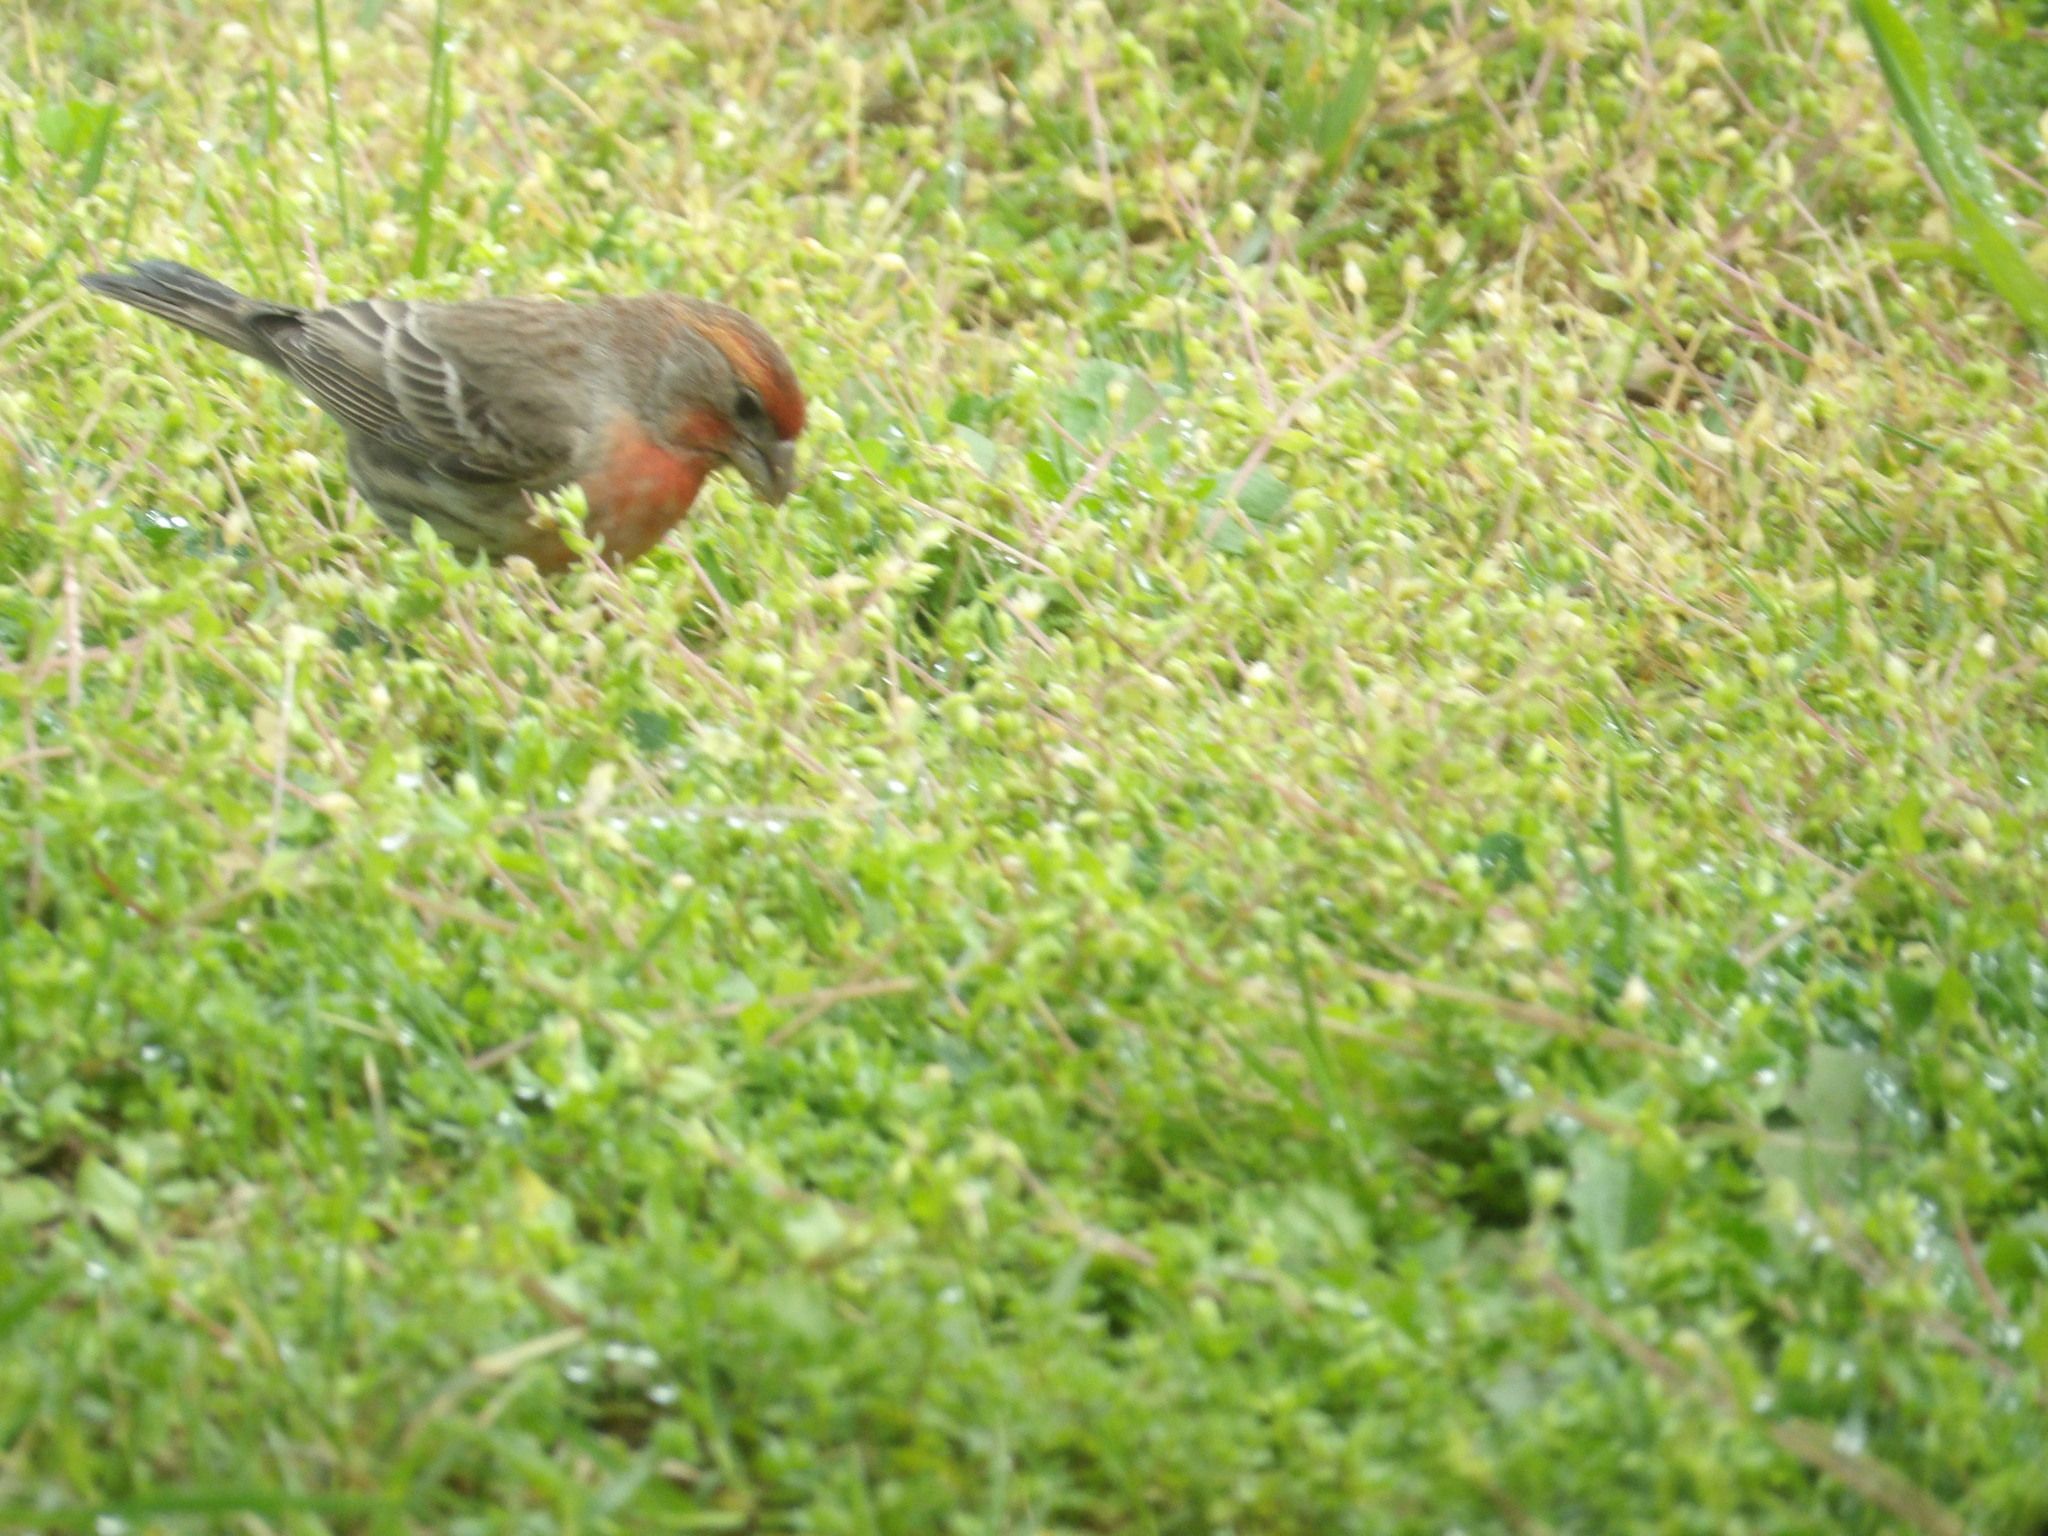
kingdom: Animalia
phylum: Chordata
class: Aves
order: Passeriformes
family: Fringillidae
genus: Haemorhous
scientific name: Haemorhous mexicanus
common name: House finch
